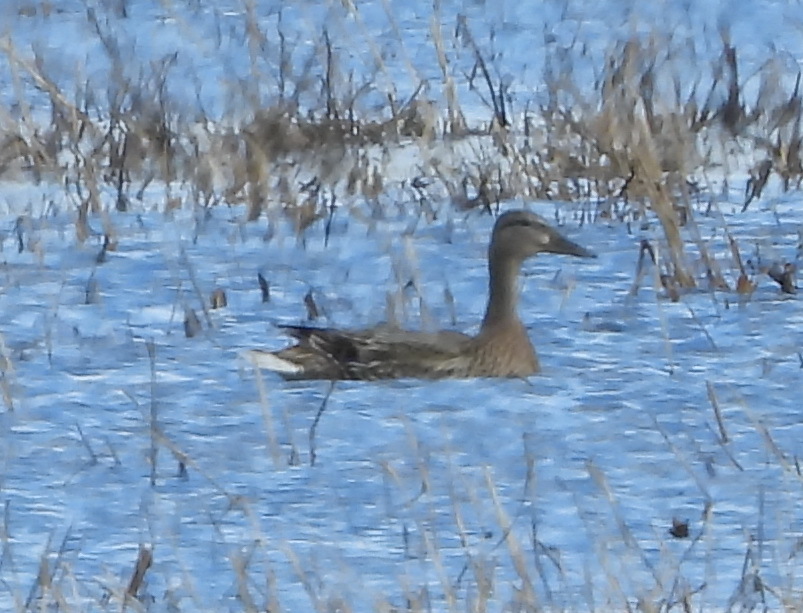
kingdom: Animalia
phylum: Chordata
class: Aves
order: Anseriformes
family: Anatidae
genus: Mareca
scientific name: Mareca strepera
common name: Gadwall
